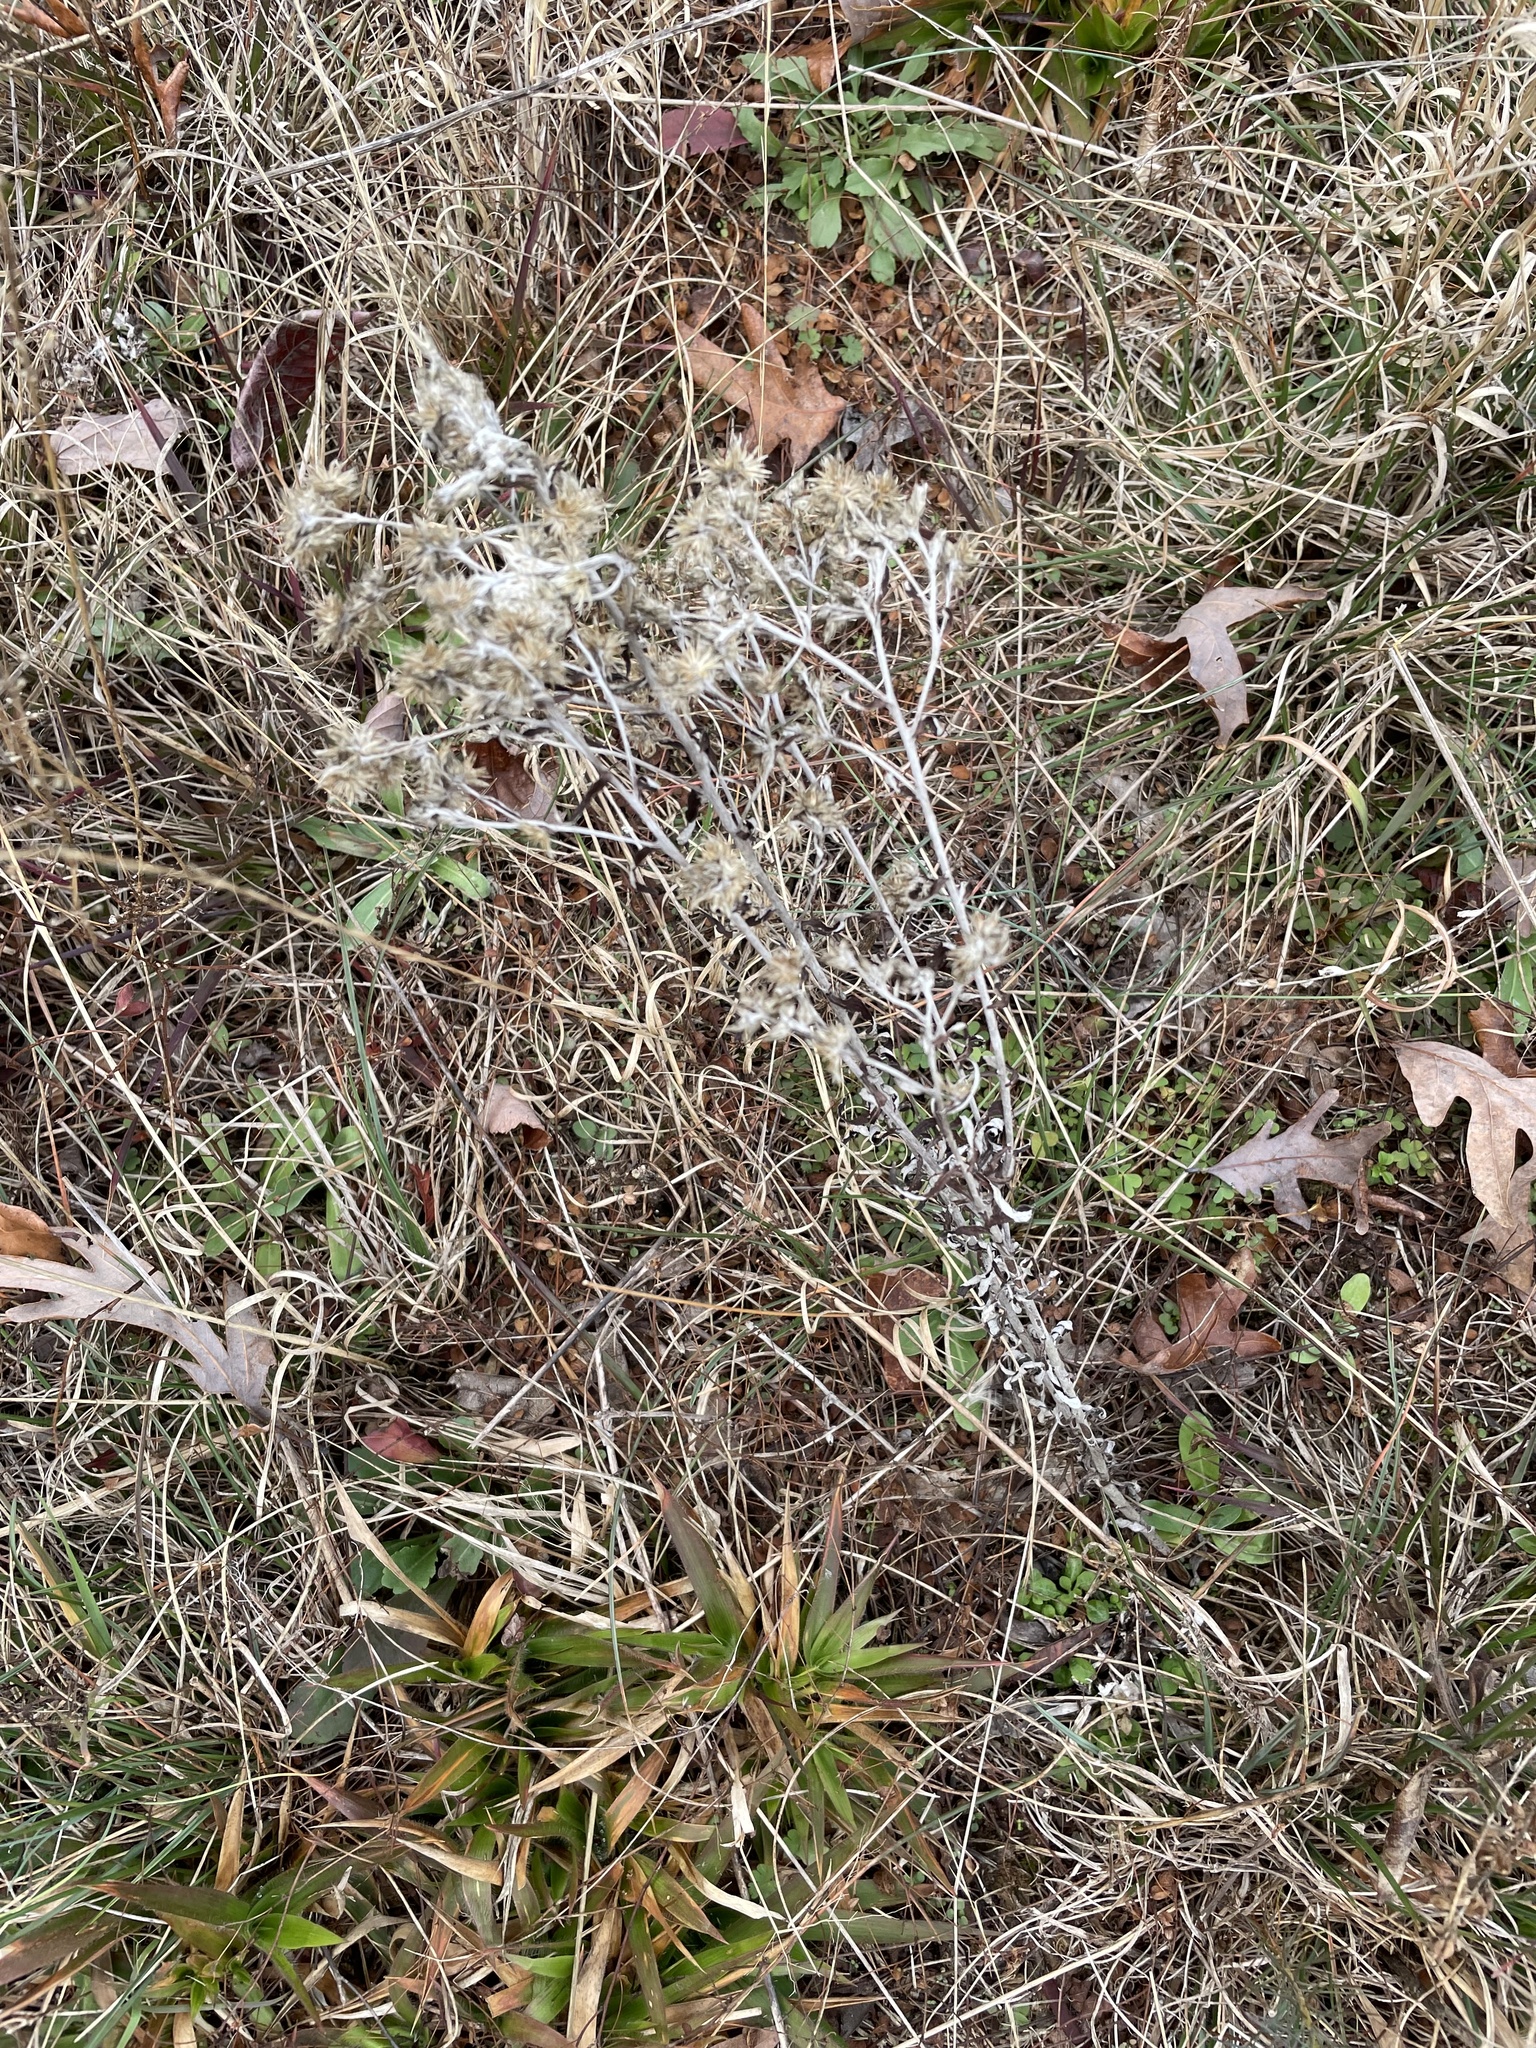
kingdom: Plantae
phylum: Tracheophyta
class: Magnoliopsida
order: Asterales
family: Asteraceae
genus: Pseudognaphalium
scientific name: Pseudognaphalium obtusifolium
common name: Eastern rabbit-tobacco
